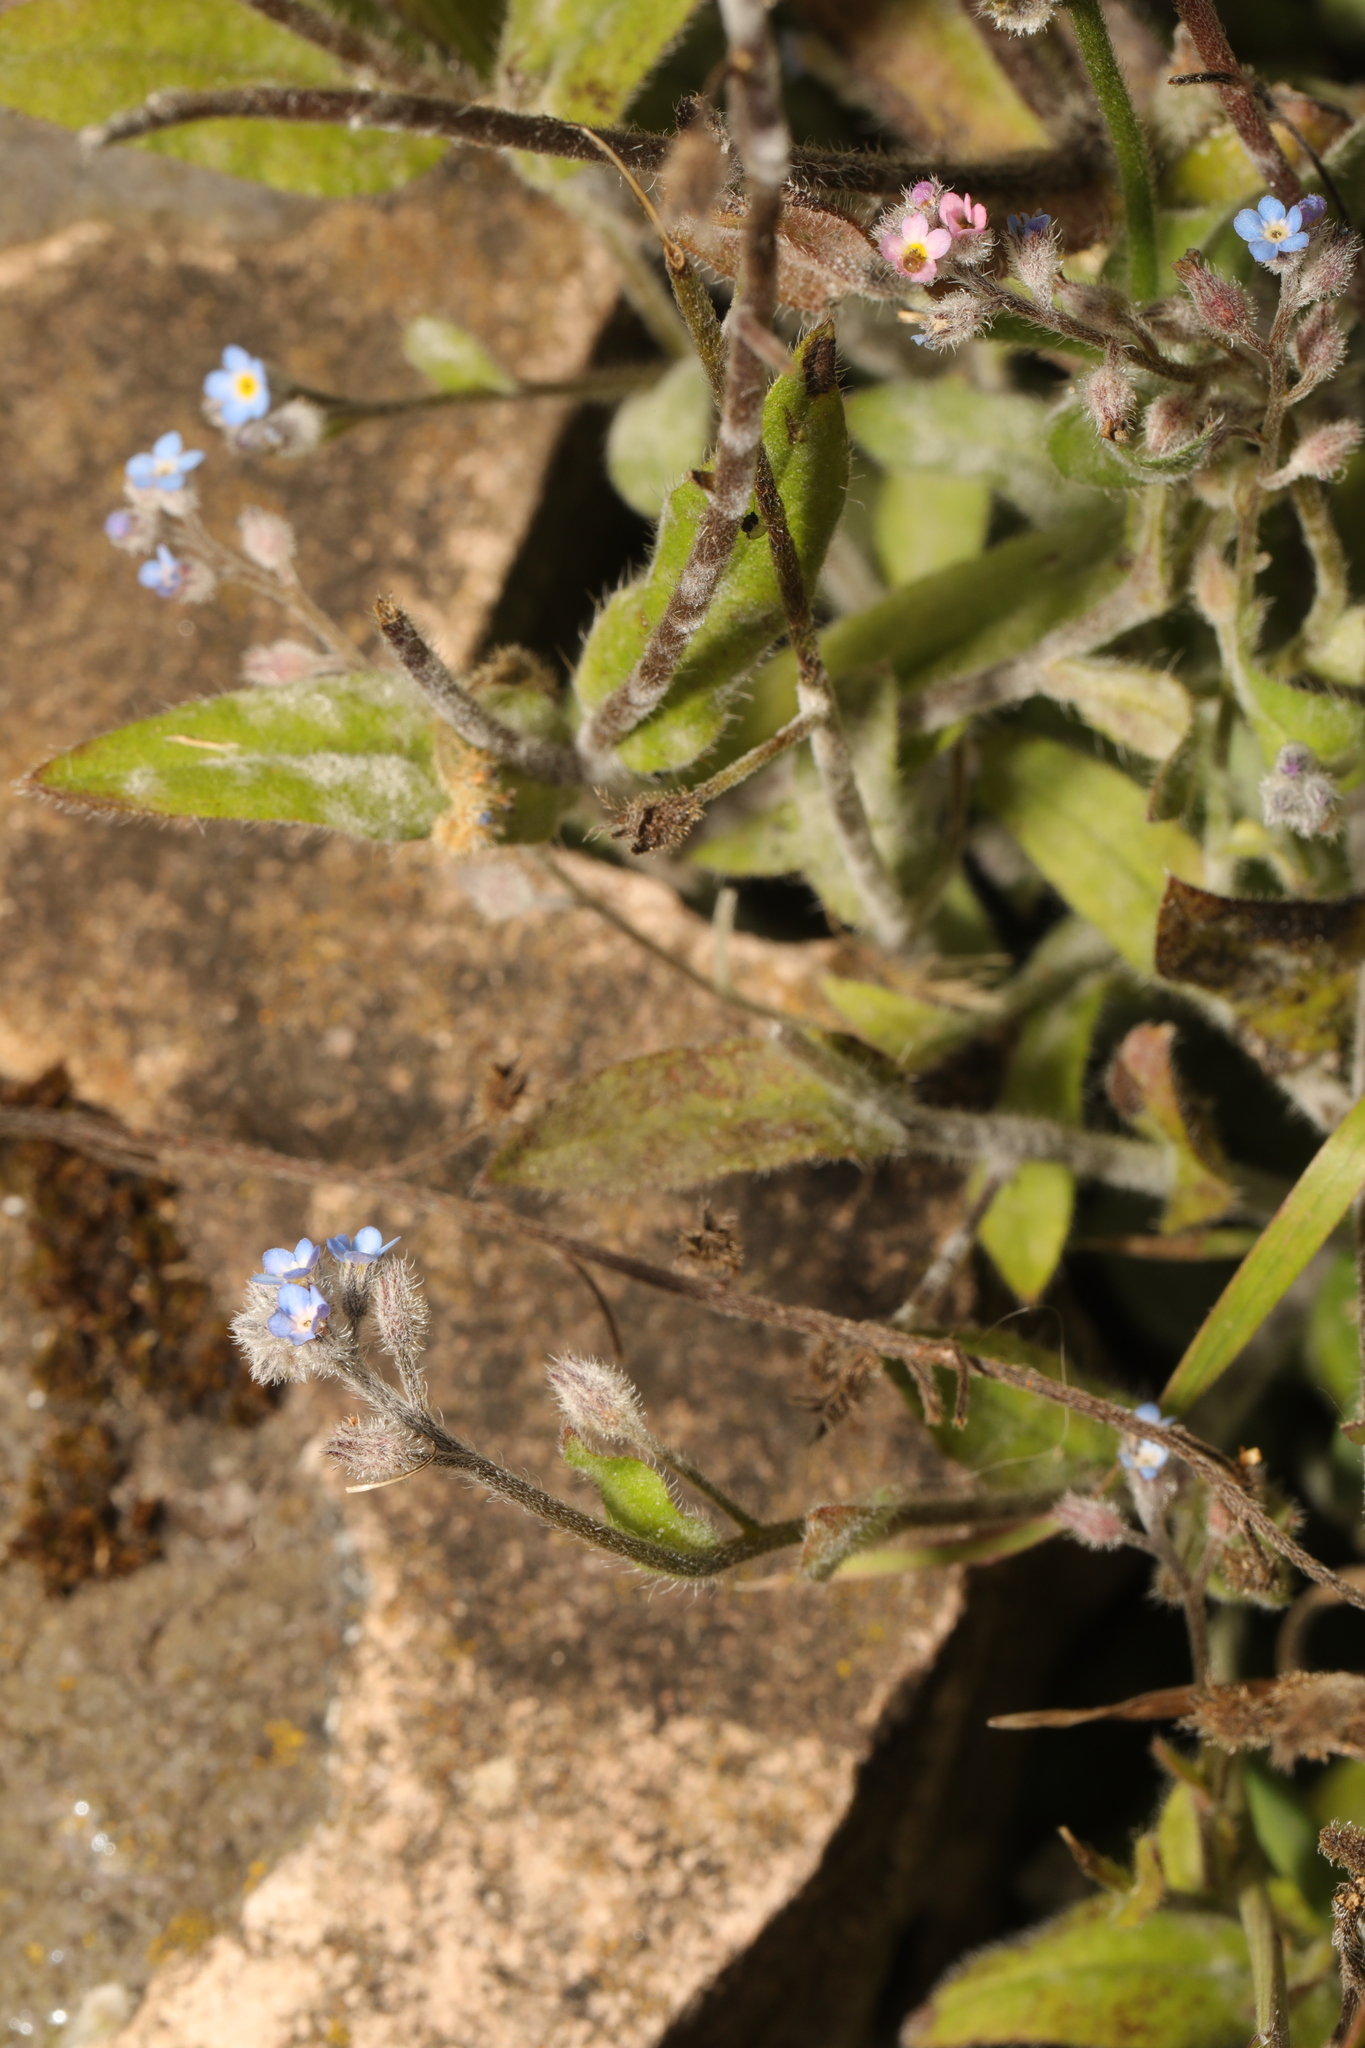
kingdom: Plantae
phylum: Tracheophyta
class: Magnoliopsida
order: Boraginales
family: Boraginaceae
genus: Myosotis
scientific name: Myosotis arvensis
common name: Field forget-me-not
